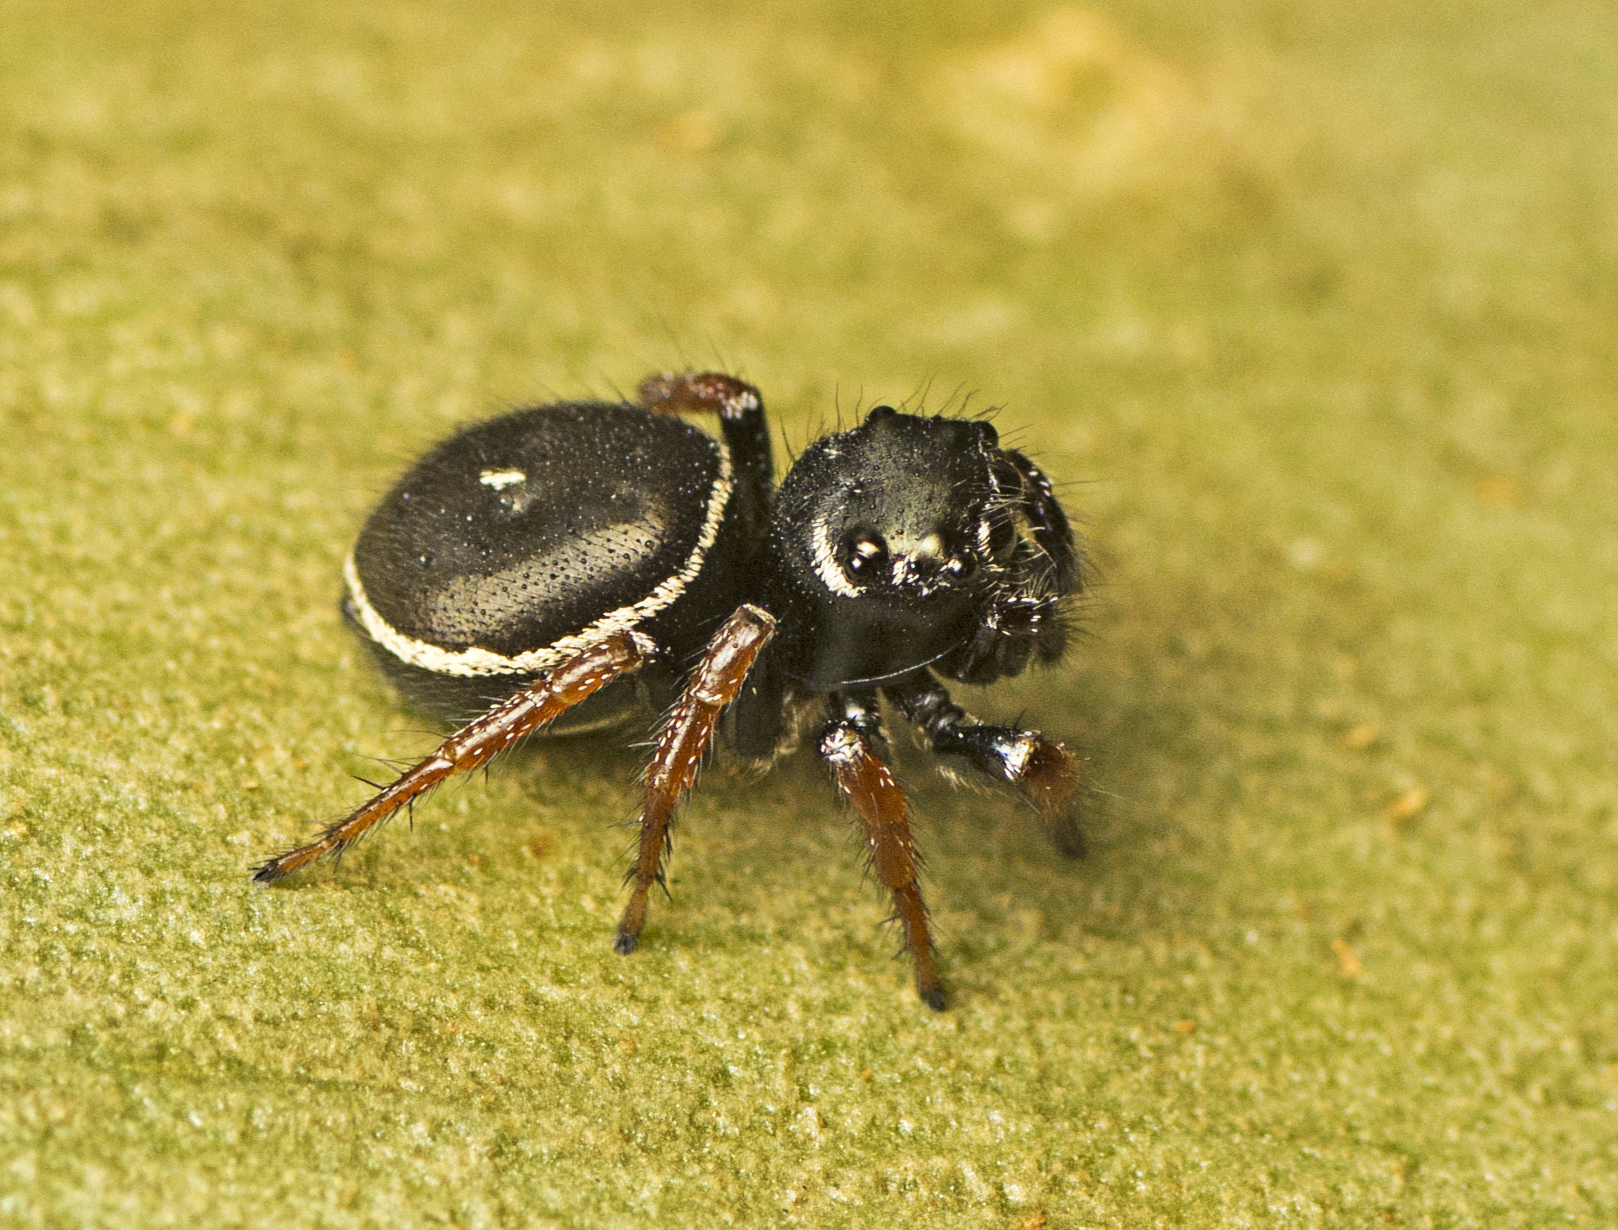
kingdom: Animalia
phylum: Arthropoda
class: Arachnida
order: Araneae
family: Salticidae
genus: Zenodorus
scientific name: Zenodorus orbiculatus
